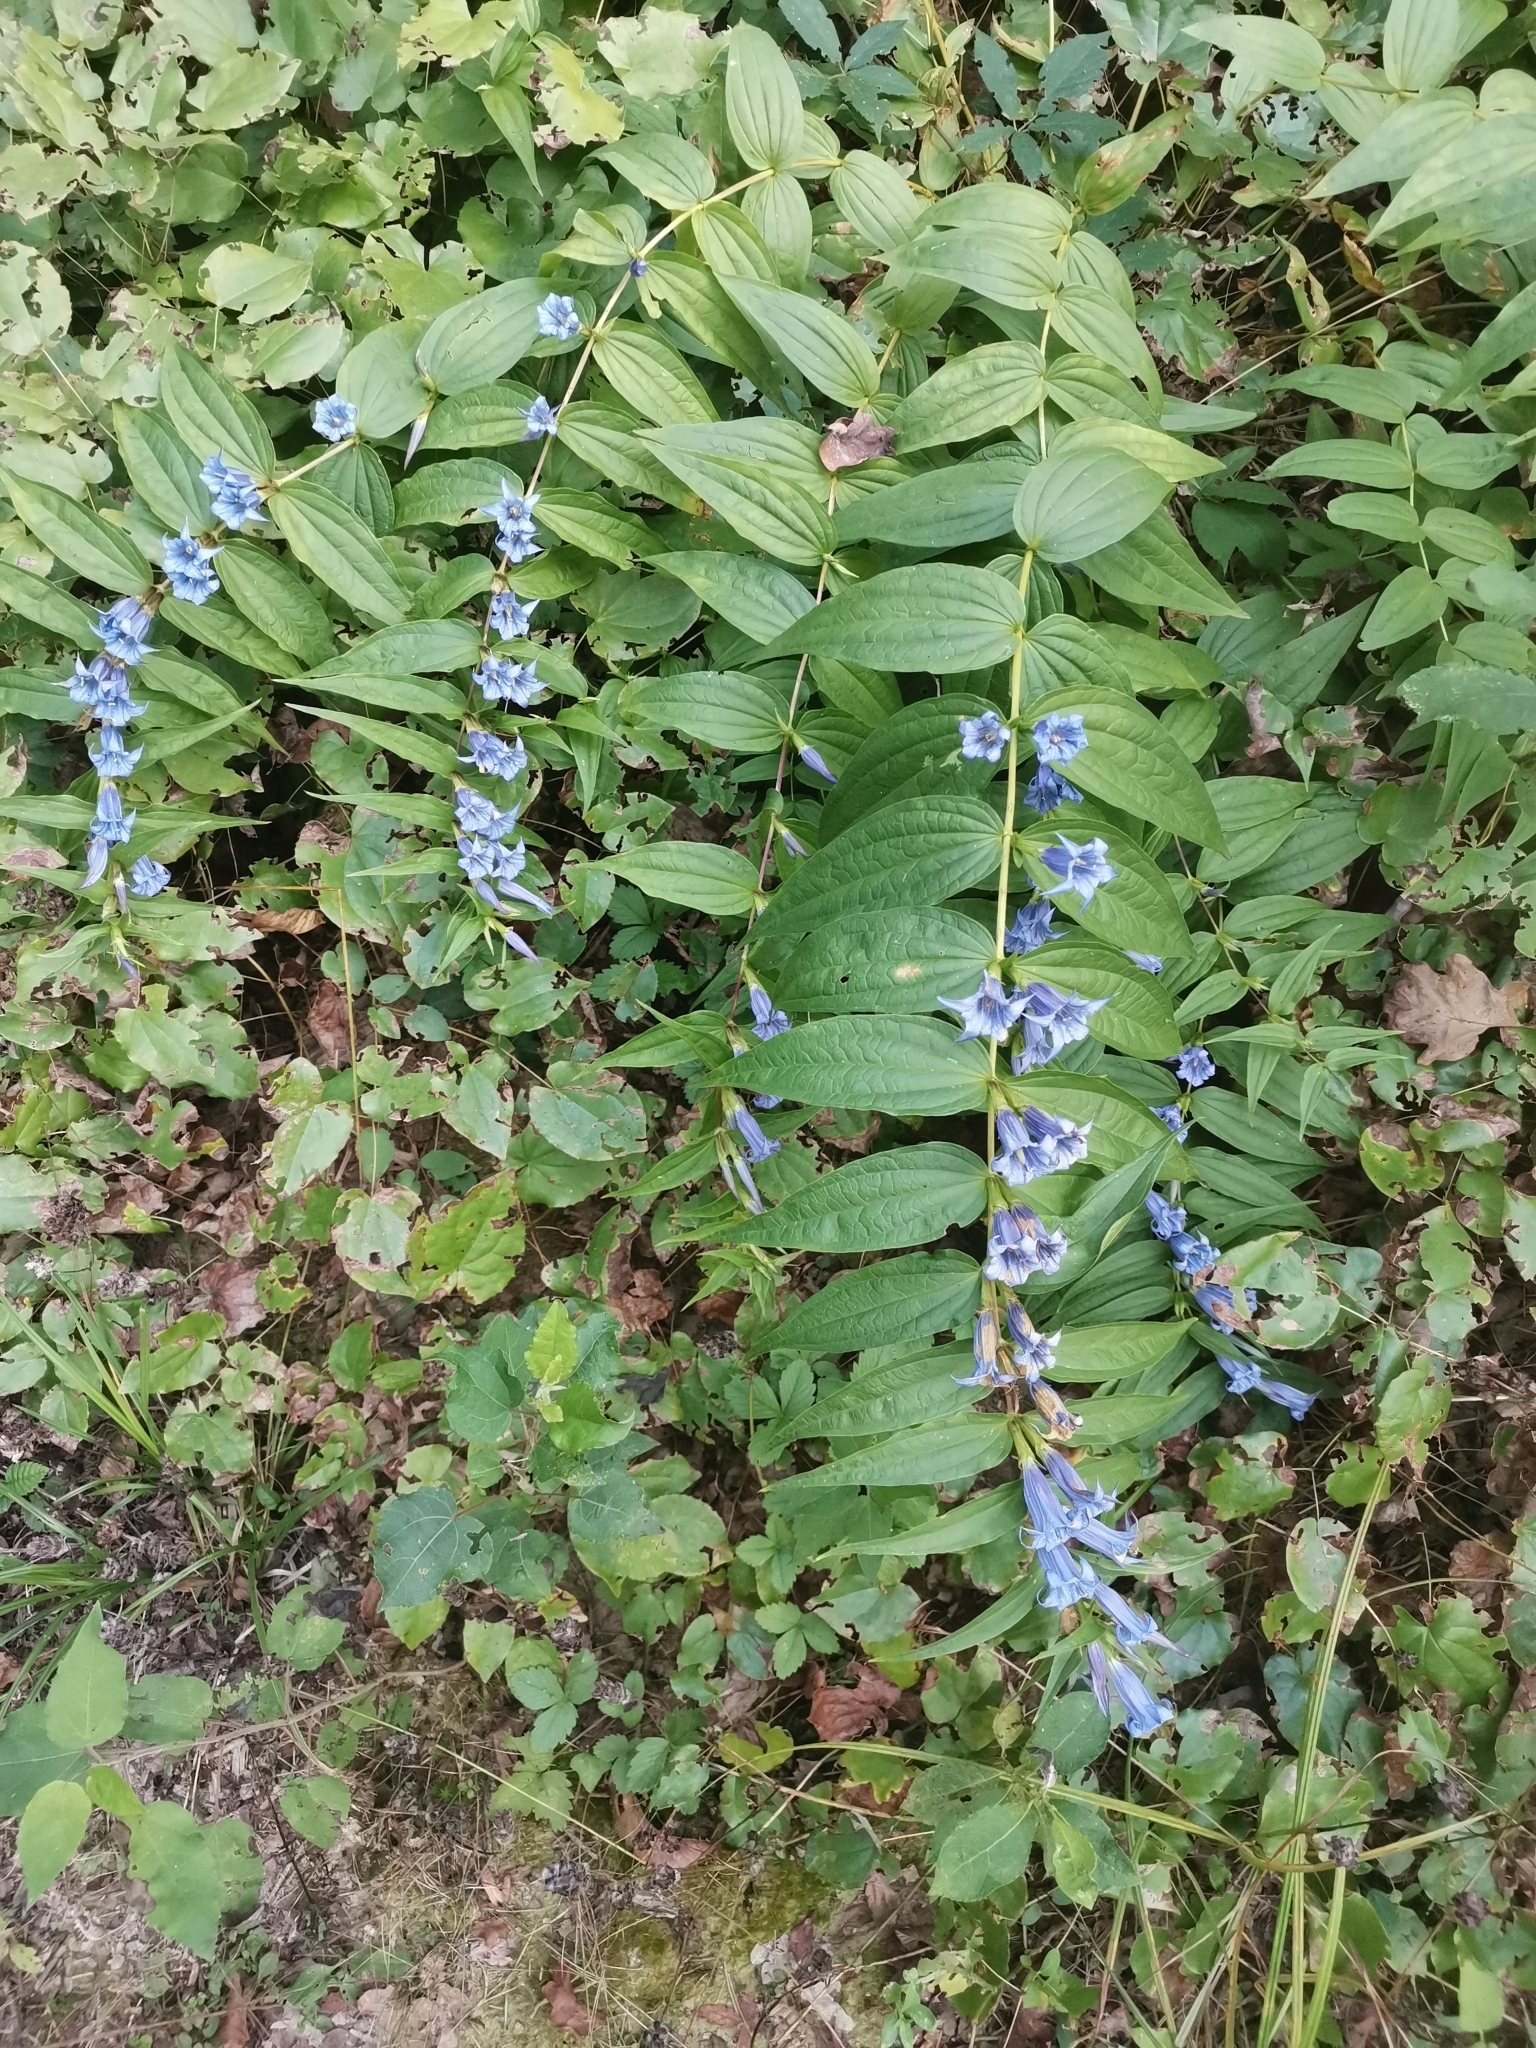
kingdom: Plantae
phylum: Tracheophyta
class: Magnoliopsida
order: Gentianales
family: Gentianaceae
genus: Gentiana
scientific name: Gentiana asclepiadea
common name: Willow gentian
